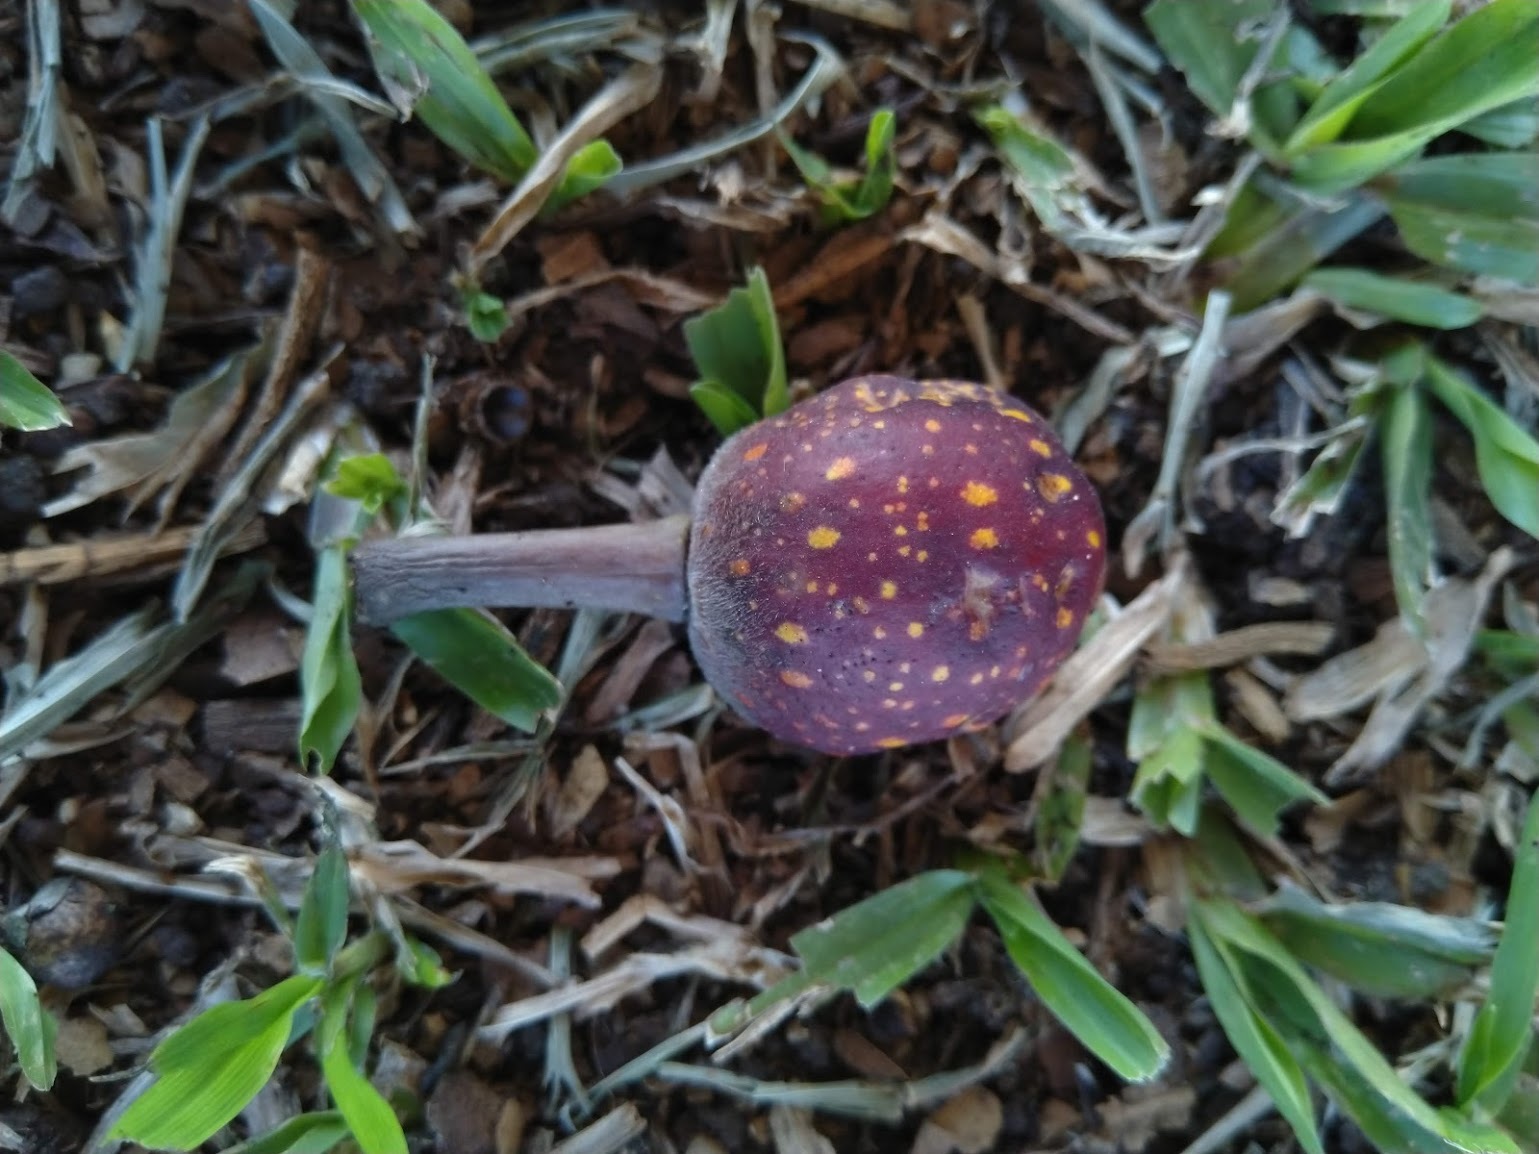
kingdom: Plantae
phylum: Tracheophyta
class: Magnoliopsida
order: Rosales
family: Moraceae
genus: Ficus
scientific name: Ficus macrophylla
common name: Moreton bay fig
